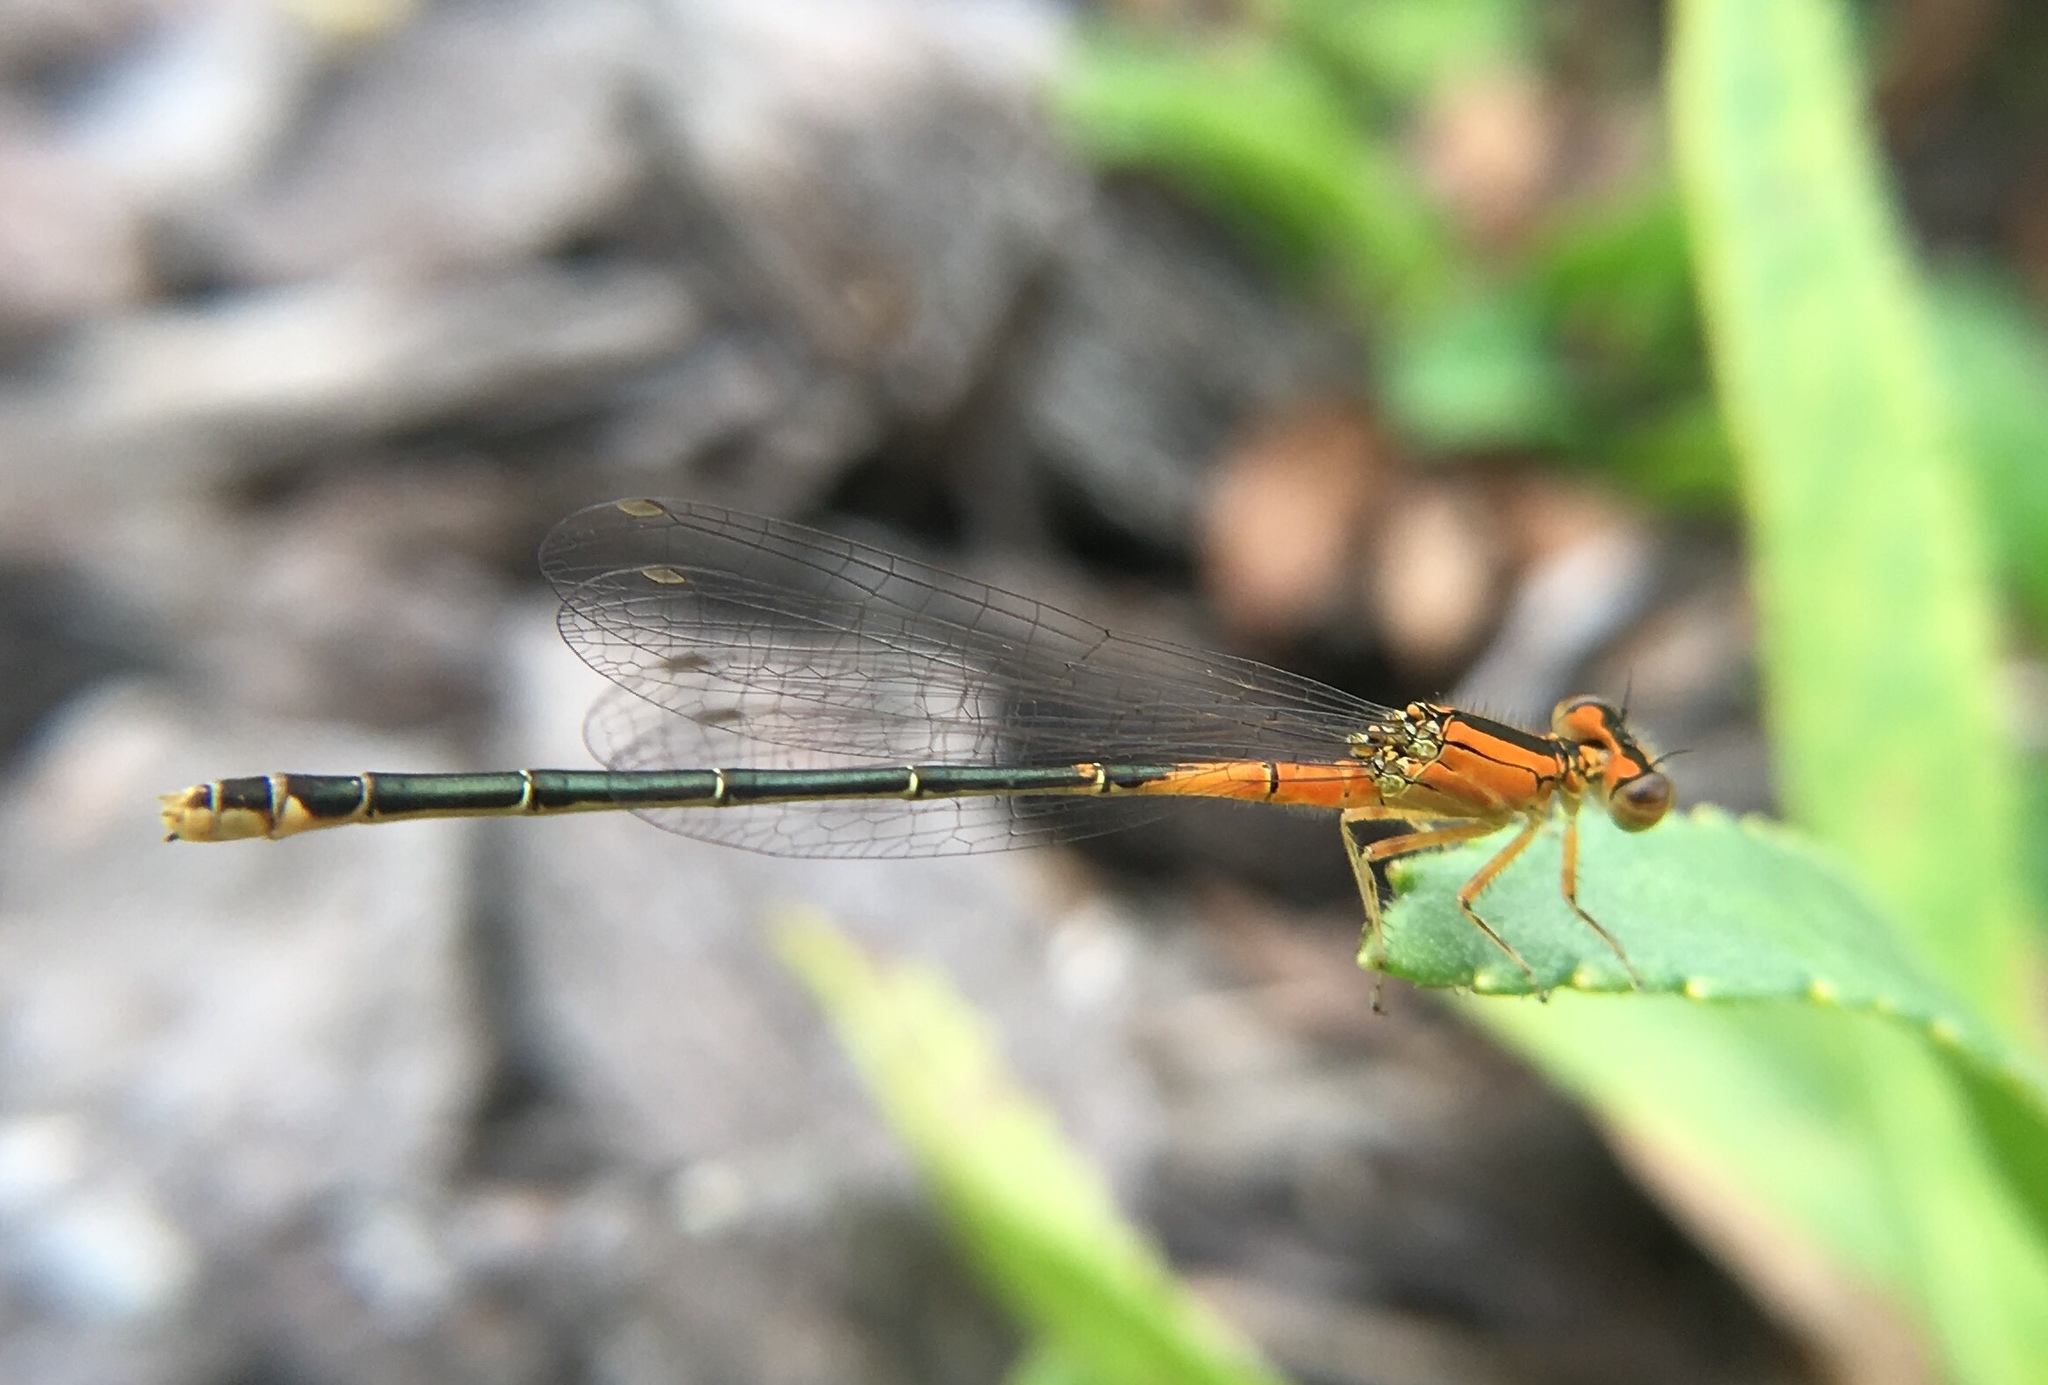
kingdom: Animalia
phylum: Arthropoda
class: Insecta
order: Odonata
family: Coenagrionidae
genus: Ischnura
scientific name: Ischnura verticalis
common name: Eastern forktail
